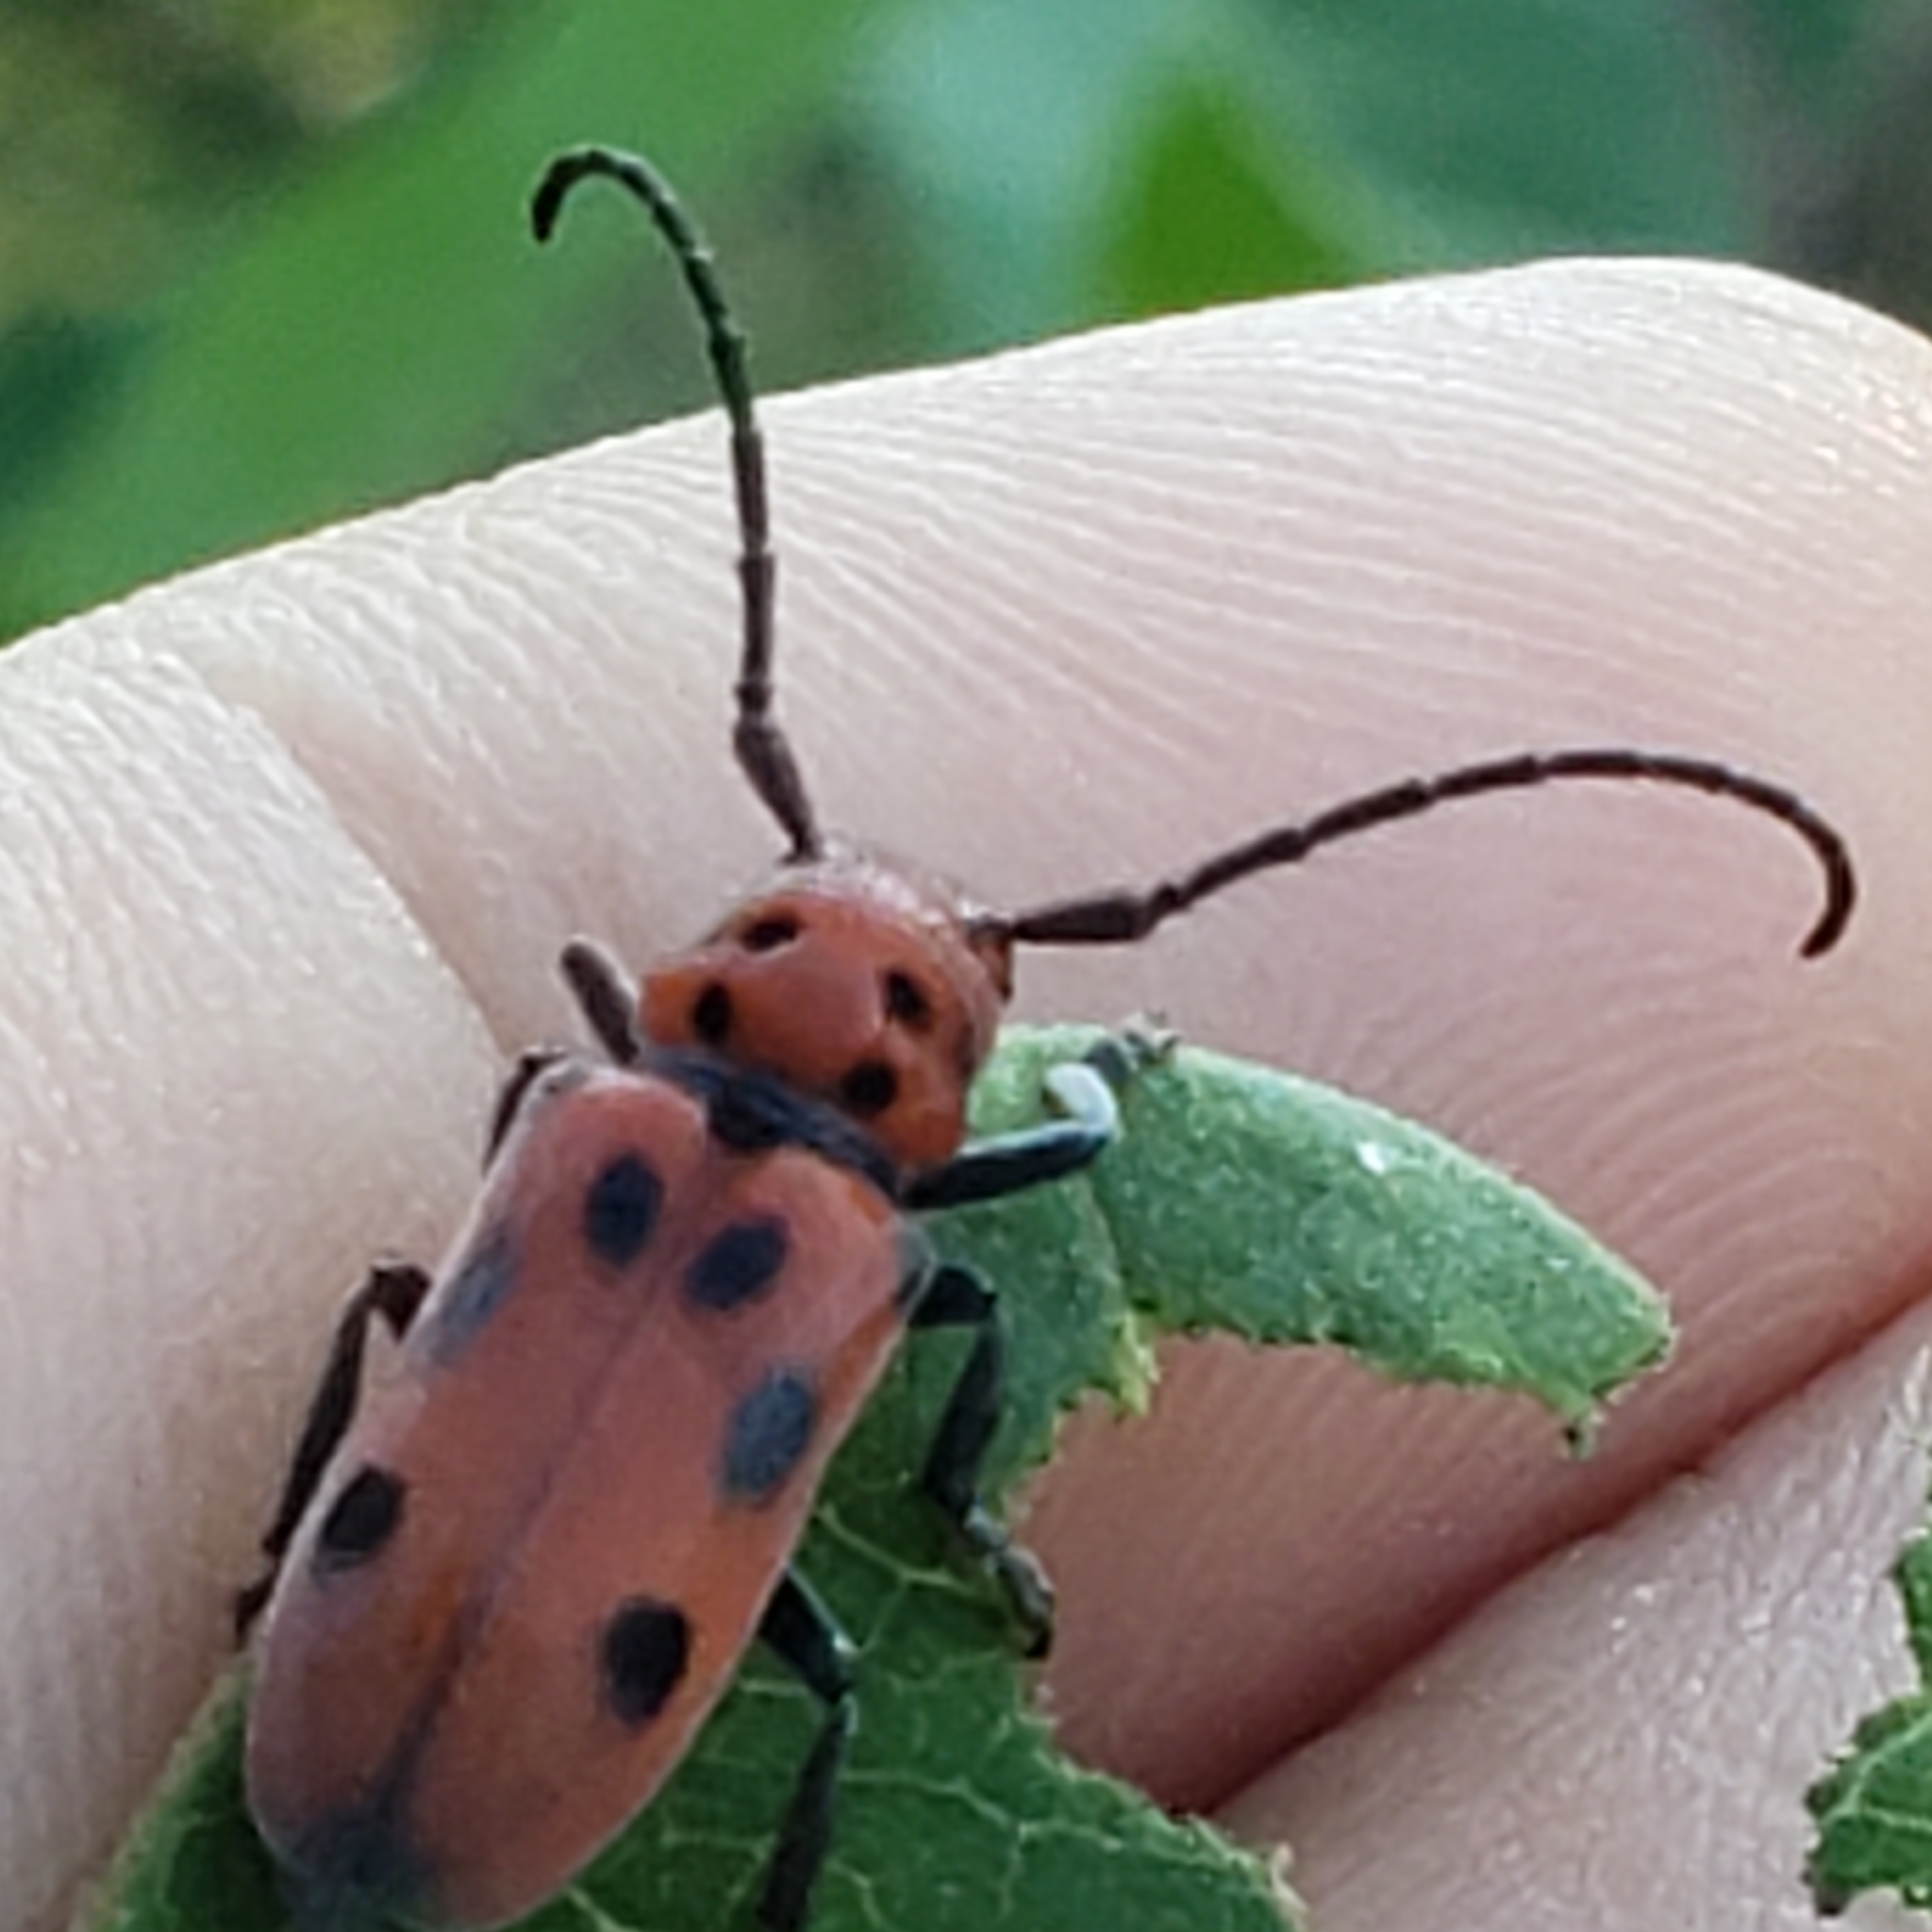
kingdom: Animalia
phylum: Arthropoda
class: Insecta
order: Coleoptera
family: Cerambycidae
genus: Tetraopes
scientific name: Tetraopes tetrophthalmus
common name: Red milkweed beetle
